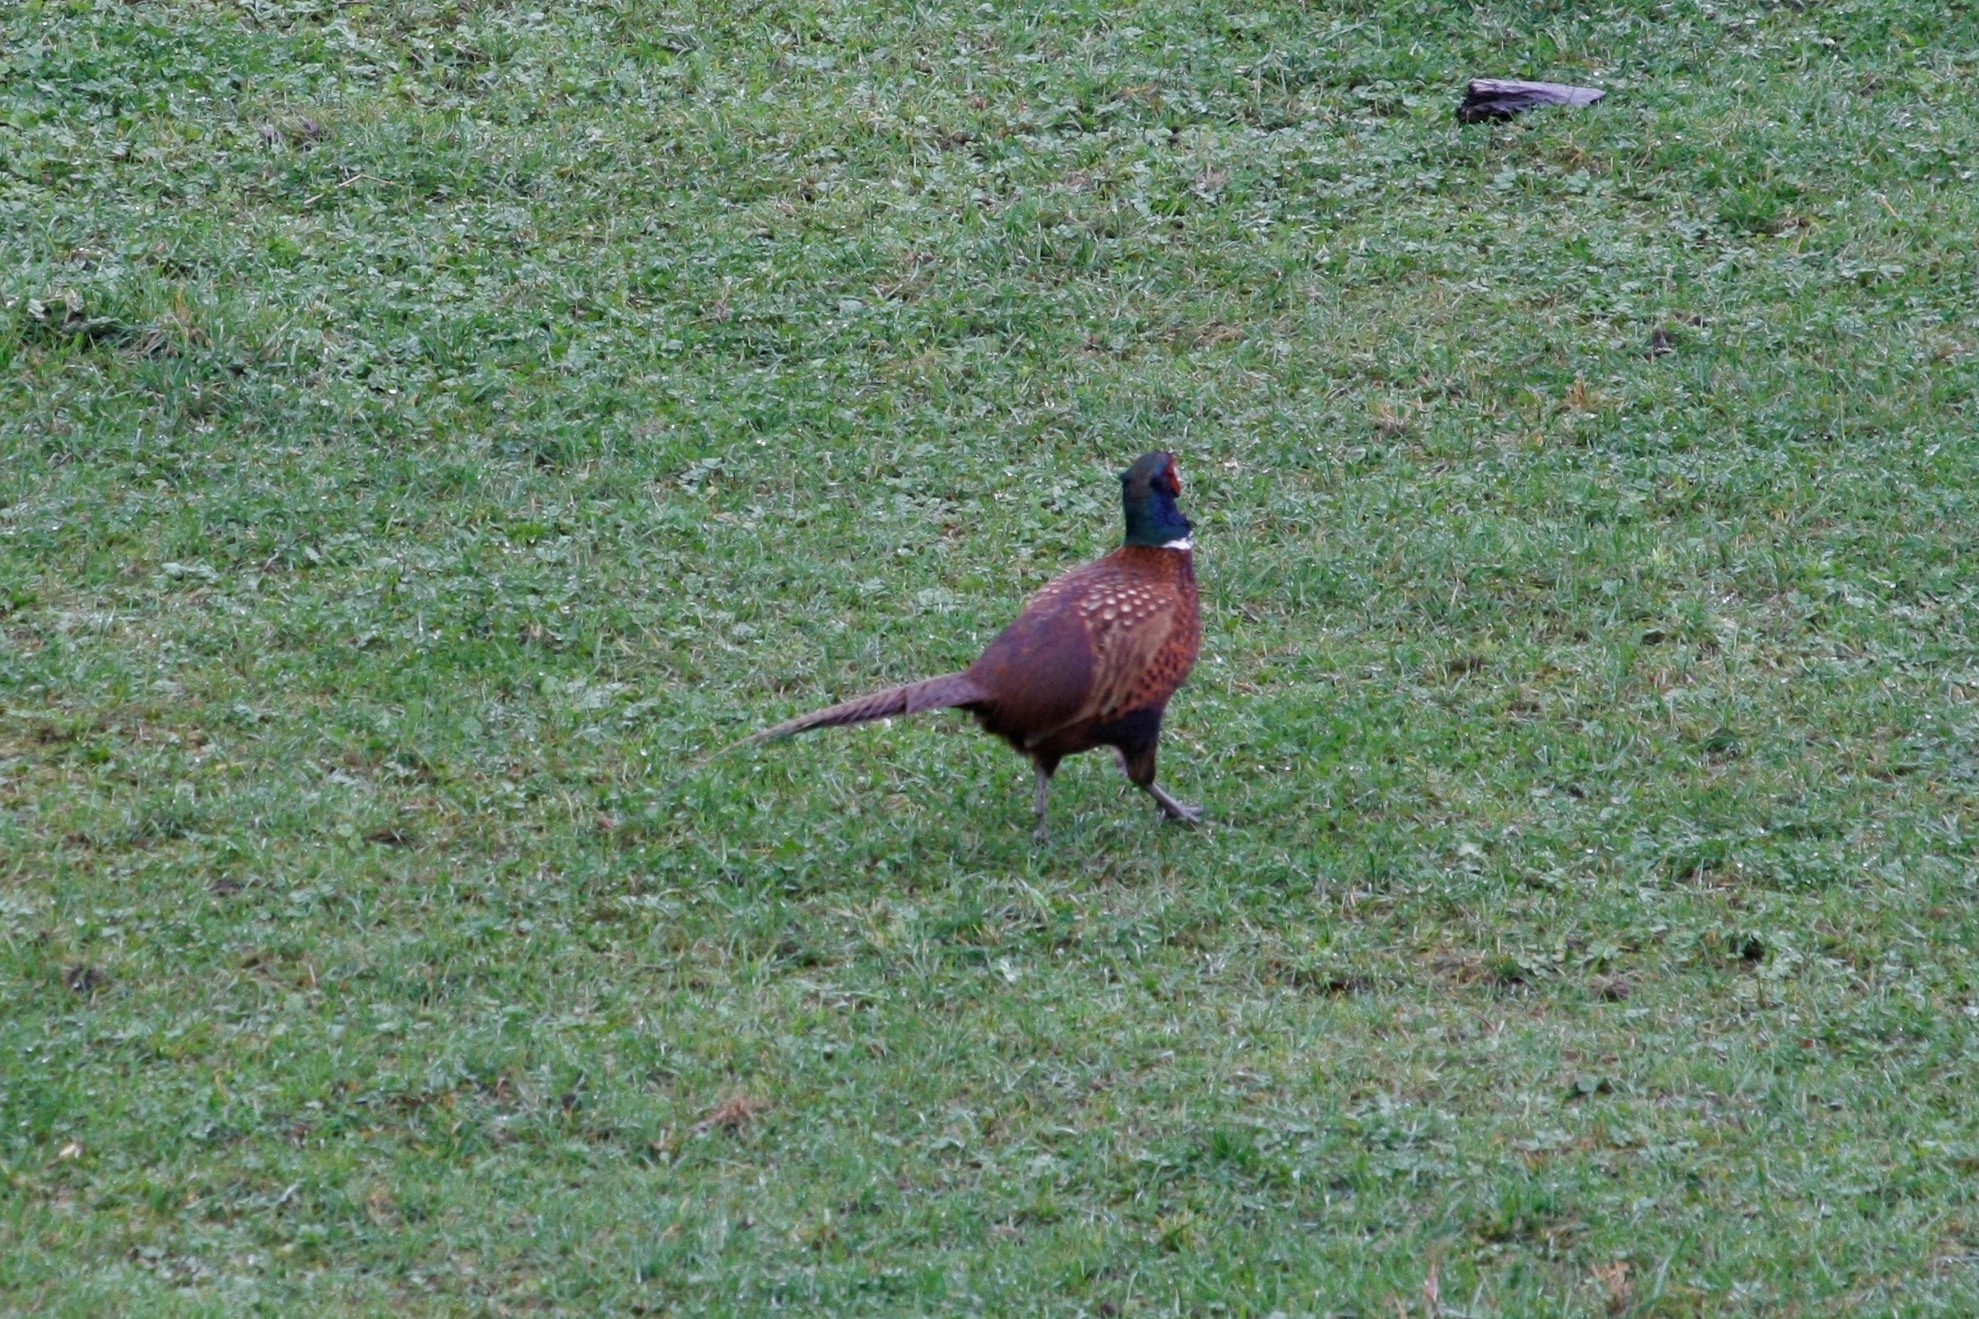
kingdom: Animalia
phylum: Chordata
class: Aves
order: Galliformes
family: Phasianidae
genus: Phasianus
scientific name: Phasianus colchicus
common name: Common pheasant
